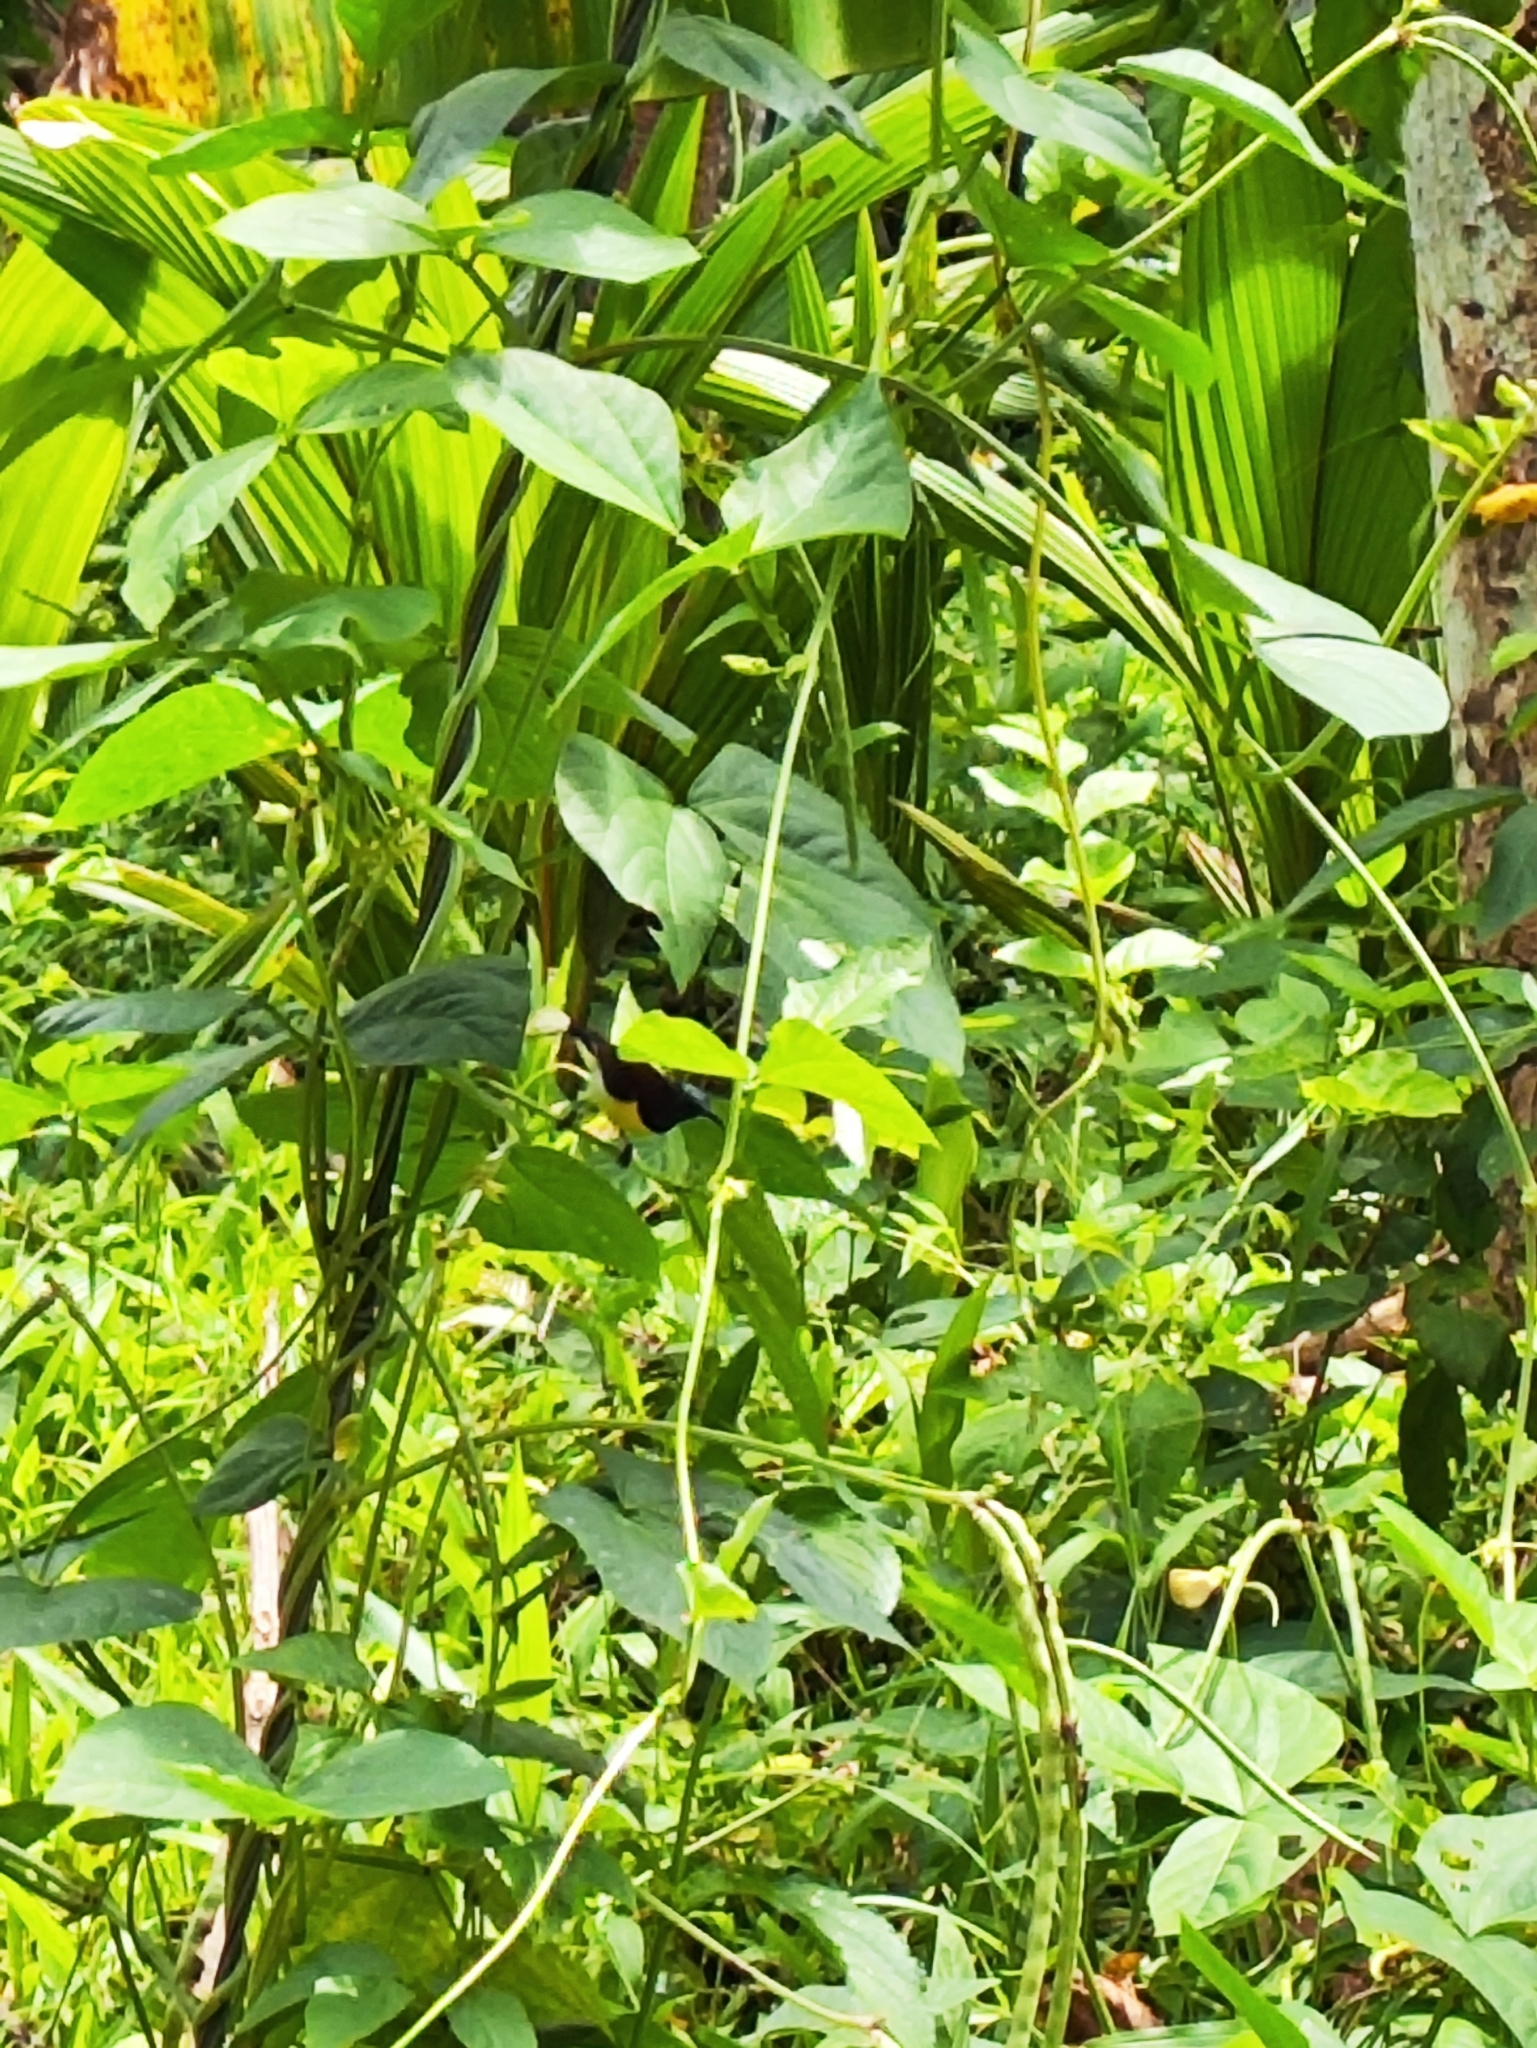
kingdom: Animalia
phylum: Chordata
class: Aves
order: Passeriformes
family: Nectariniidae
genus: Leptocoma
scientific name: Leptocoma zeylonica
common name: Purple-rumped sunbird
